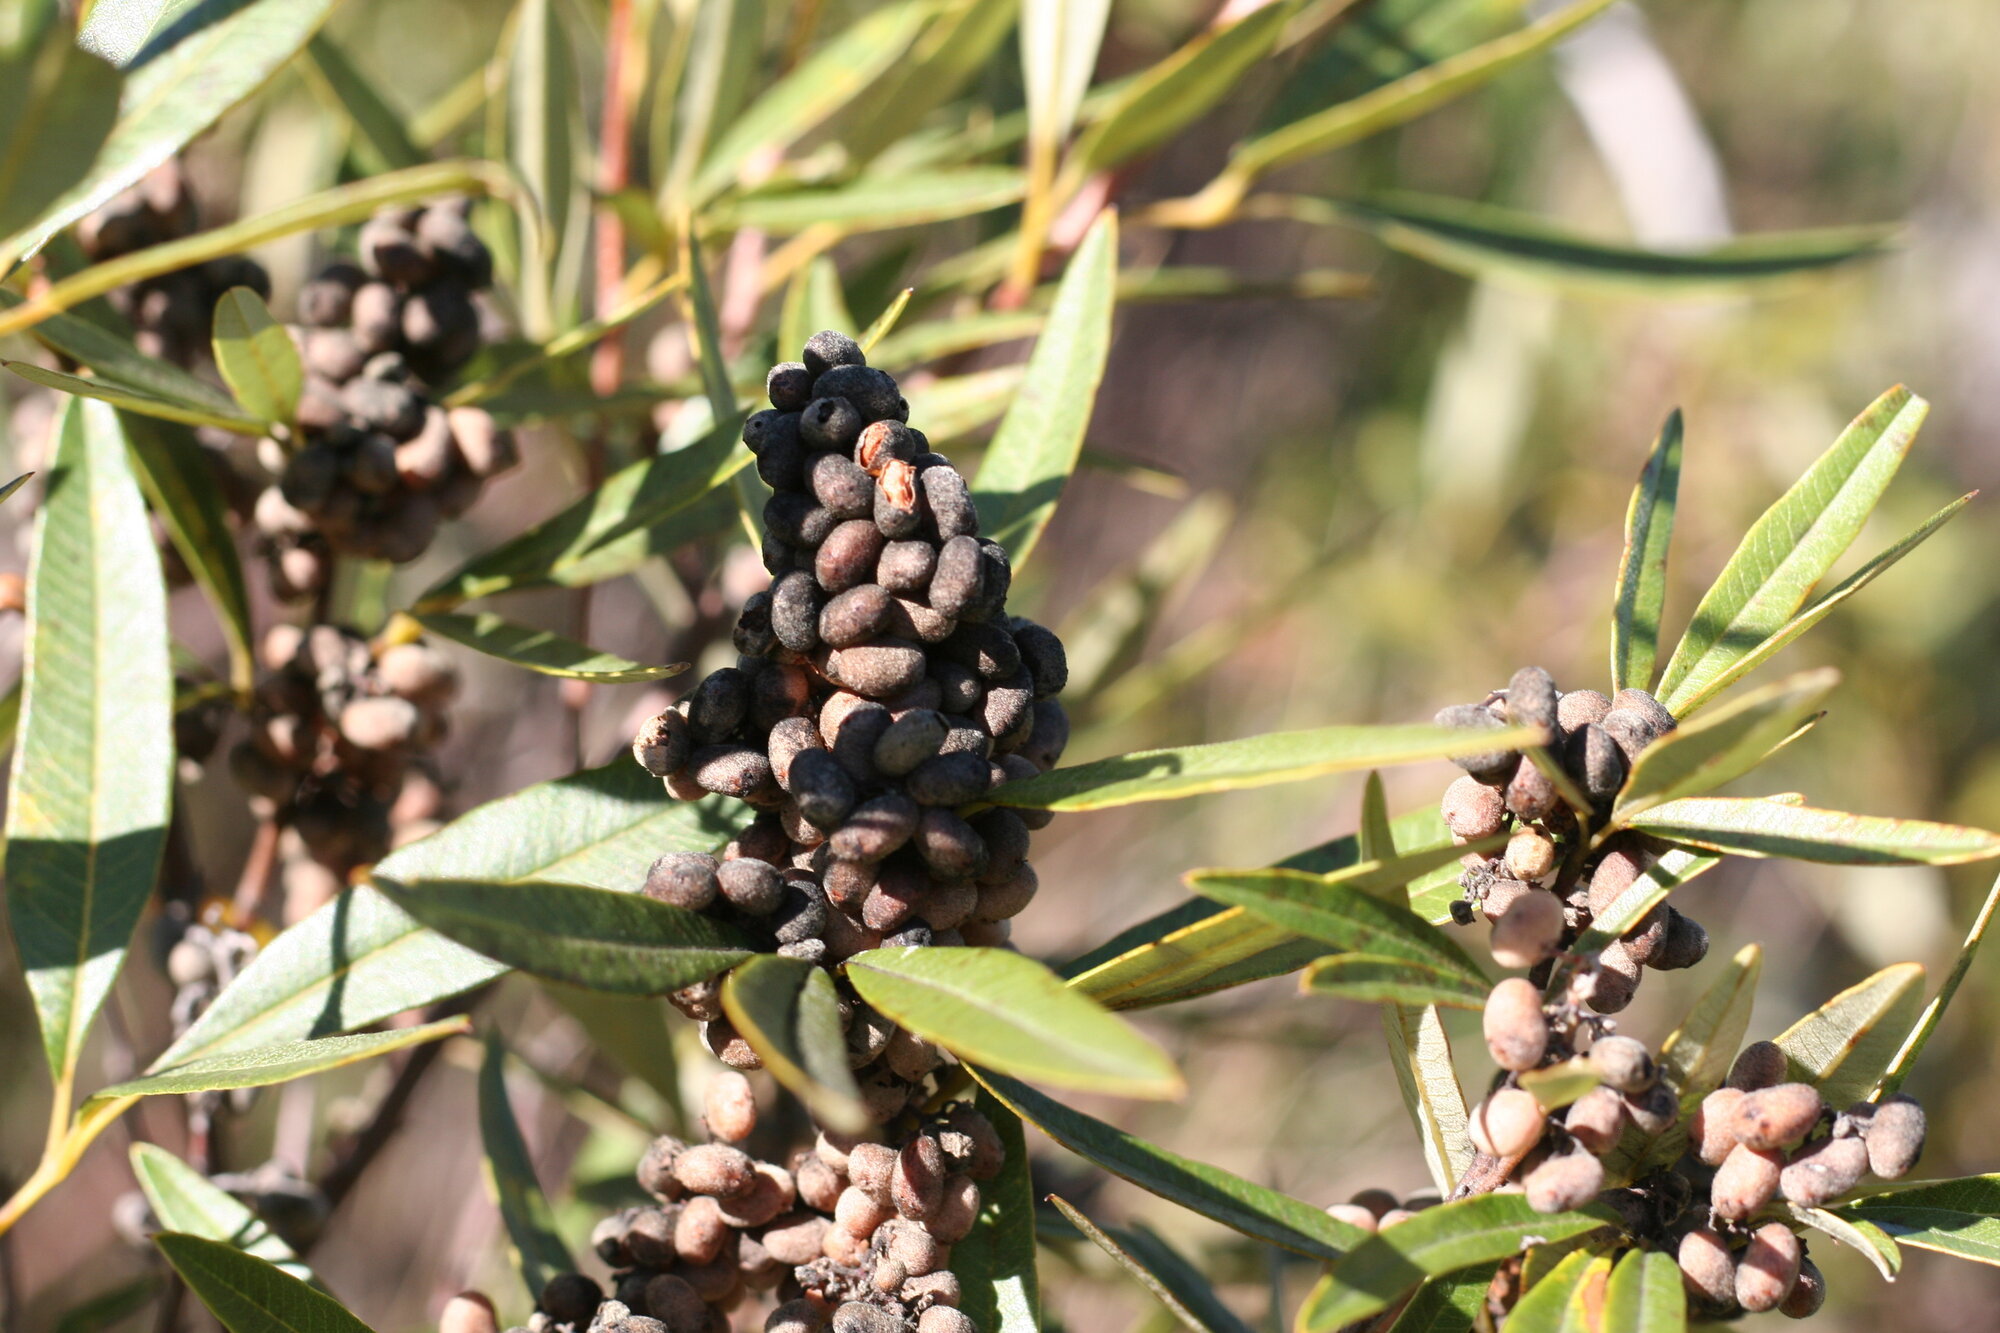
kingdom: Plantae
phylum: Tracheophyta
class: Magnoliopsida
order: Sapindales
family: Anacardiaceae
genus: Searsia
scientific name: Searsia angustifolia
